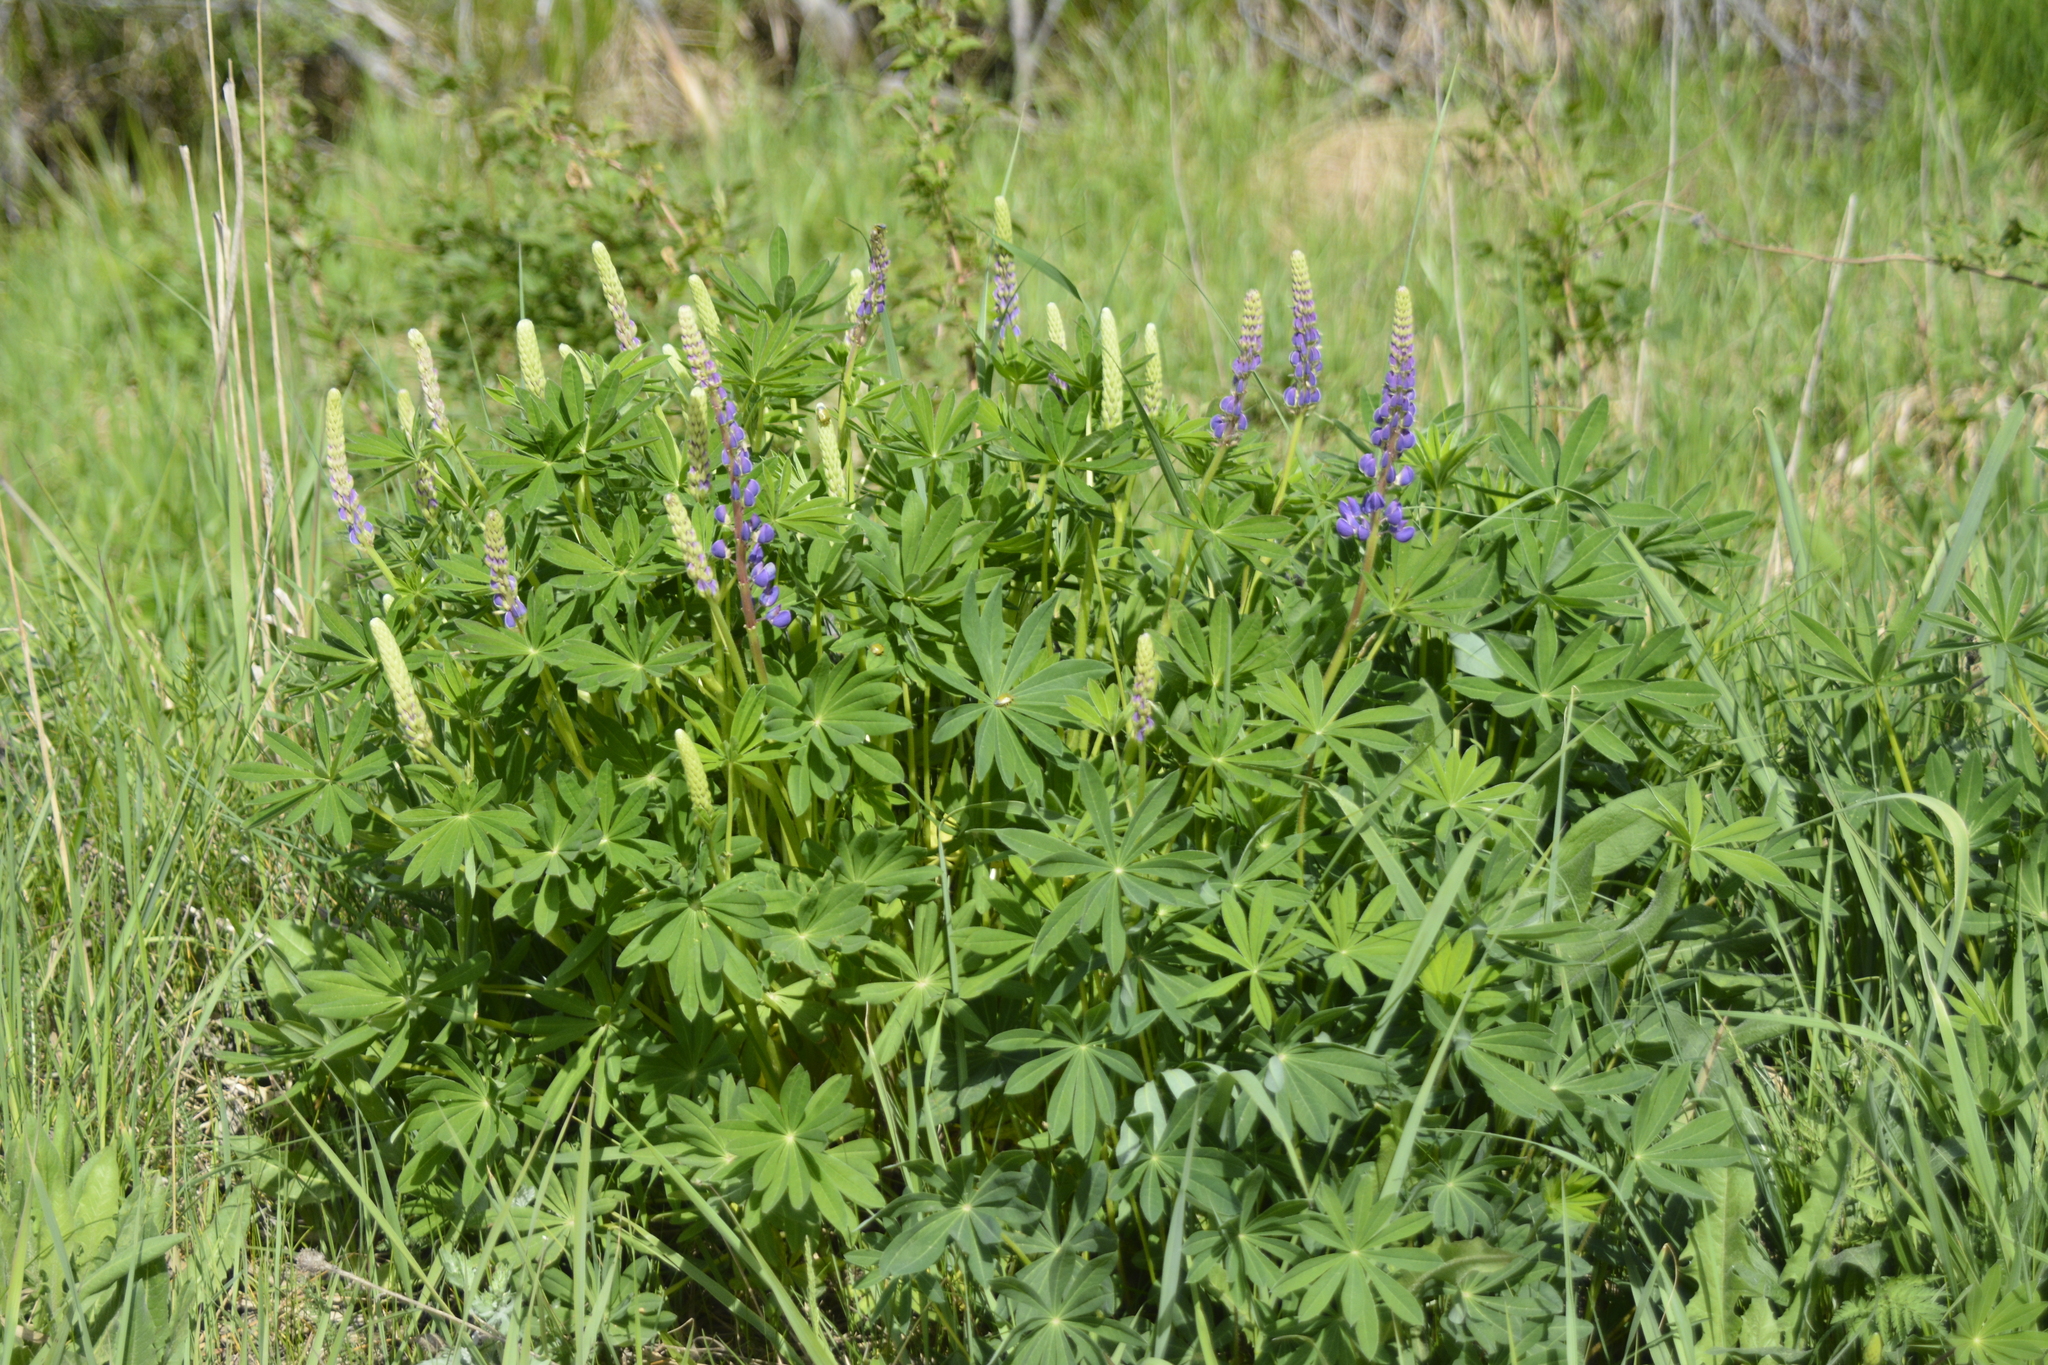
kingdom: Plantae
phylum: Tracheophyta
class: Magnoliopsida
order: Fabales
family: Fabaceae
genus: Lupinus
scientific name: Lupinus polyphyllus
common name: Garden lupin
